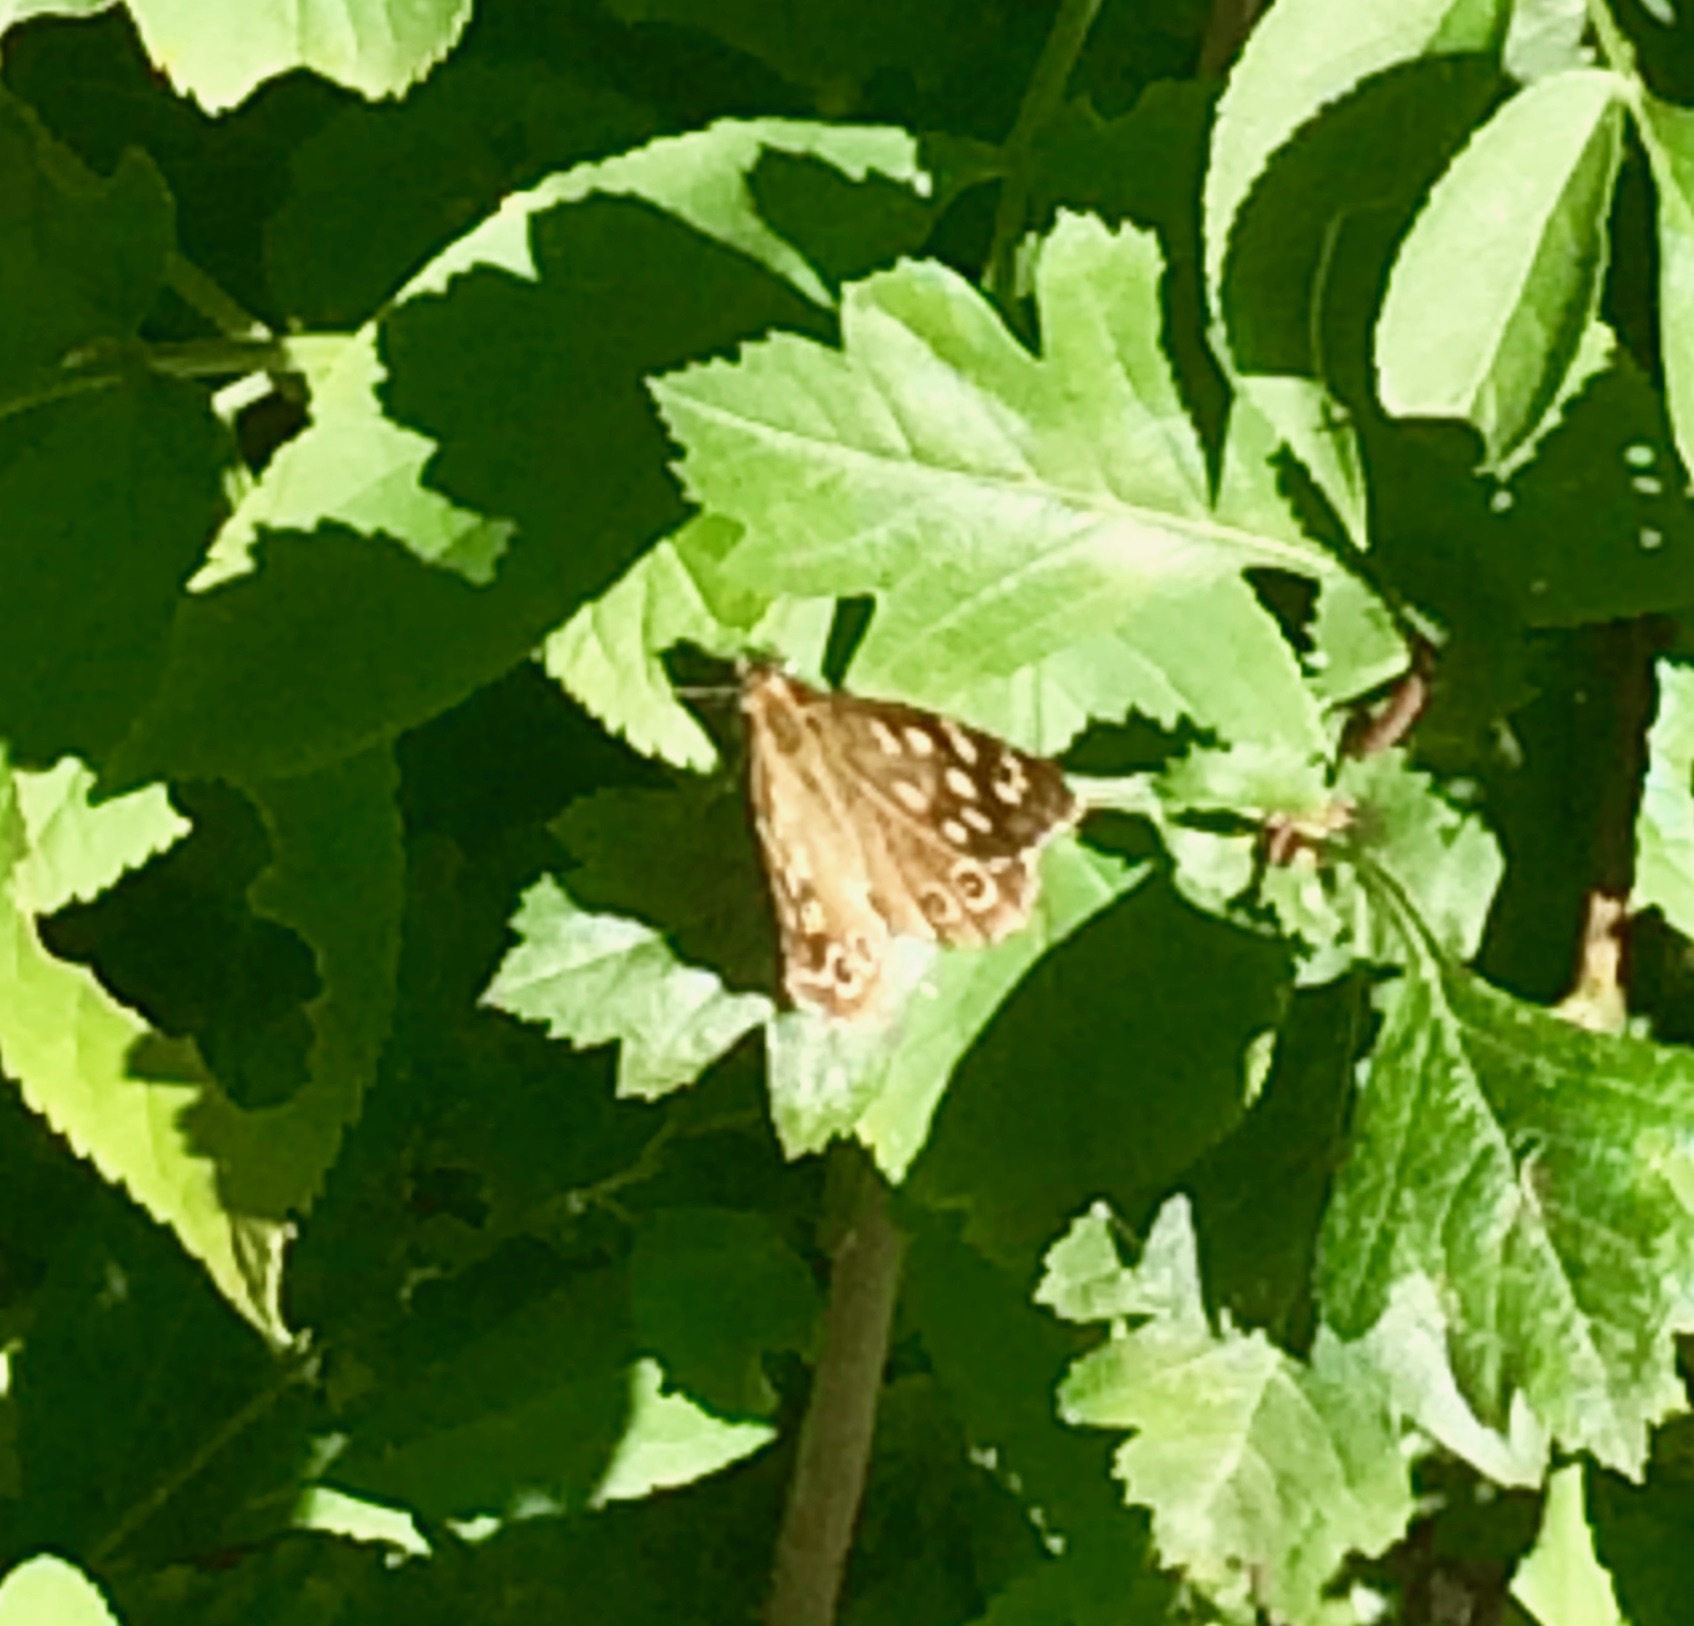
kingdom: Animalia
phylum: Arthropoda
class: Insecta
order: Lepidoptera
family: Nymphalidae
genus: Pararge
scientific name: Pararge aegeria
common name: Speckled wood
